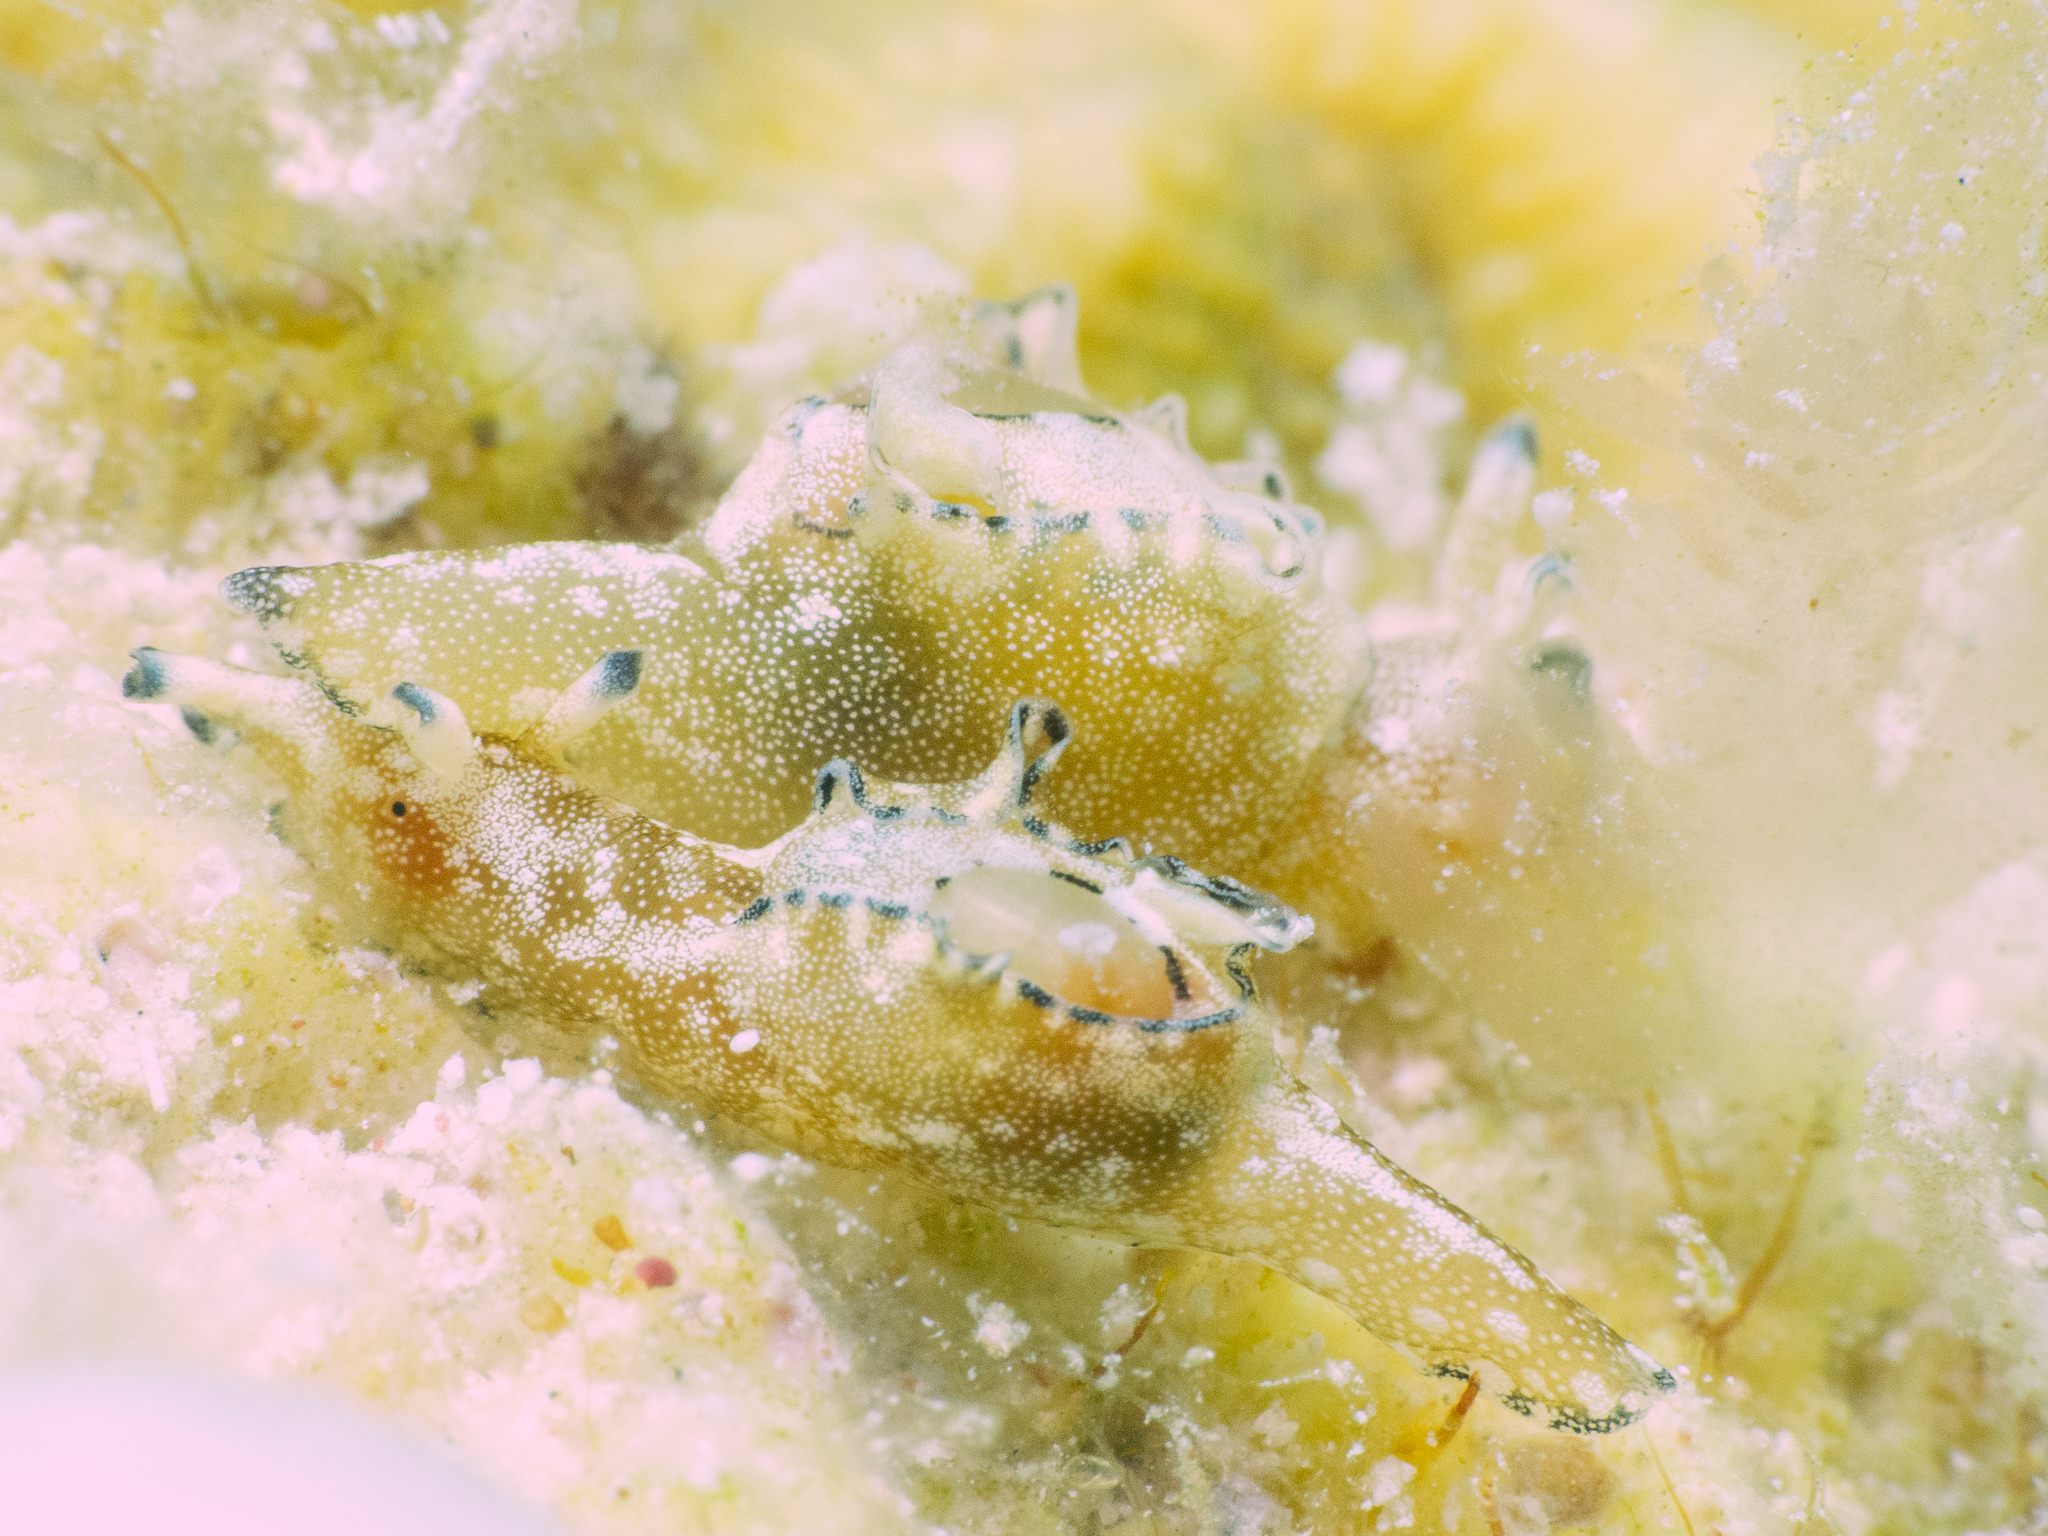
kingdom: Animalia
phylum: Mollusca
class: Gastropoda
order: Aplysiida
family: Aplysiidae
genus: Aplysia
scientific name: Aplysia parvula
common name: Dwarf sea hare
